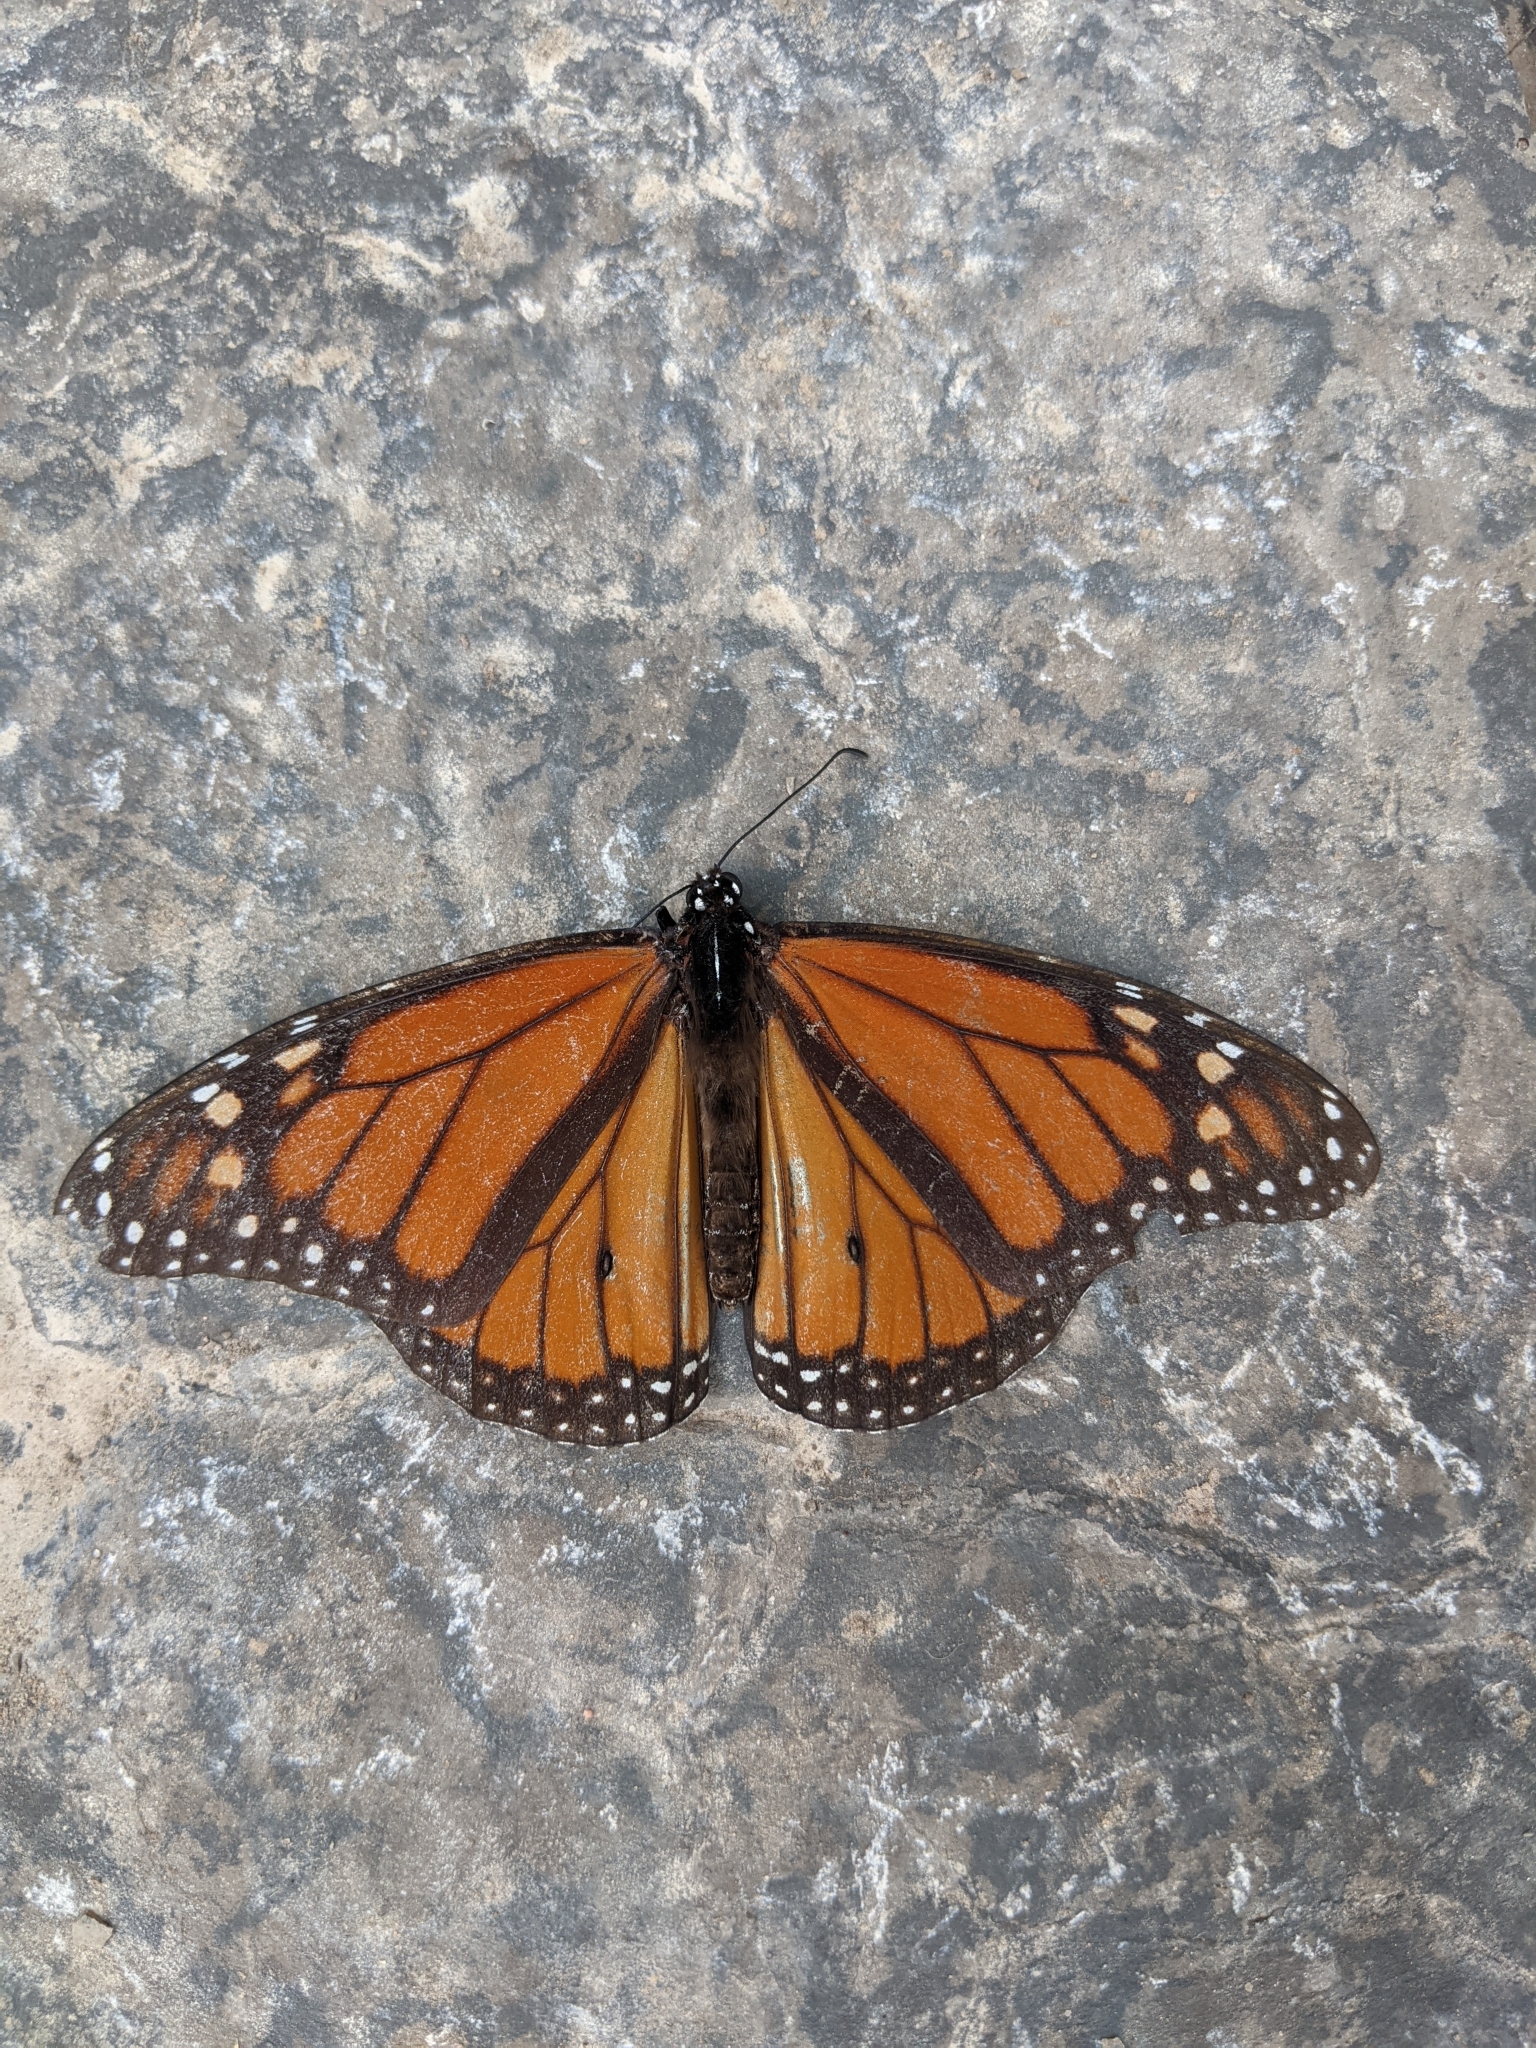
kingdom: Animalia
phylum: Arthropoda
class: Insecta
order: Lepidoptera
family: Nymphalidae
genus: Danaus
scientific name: Danaus plexippus
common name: Monarch
